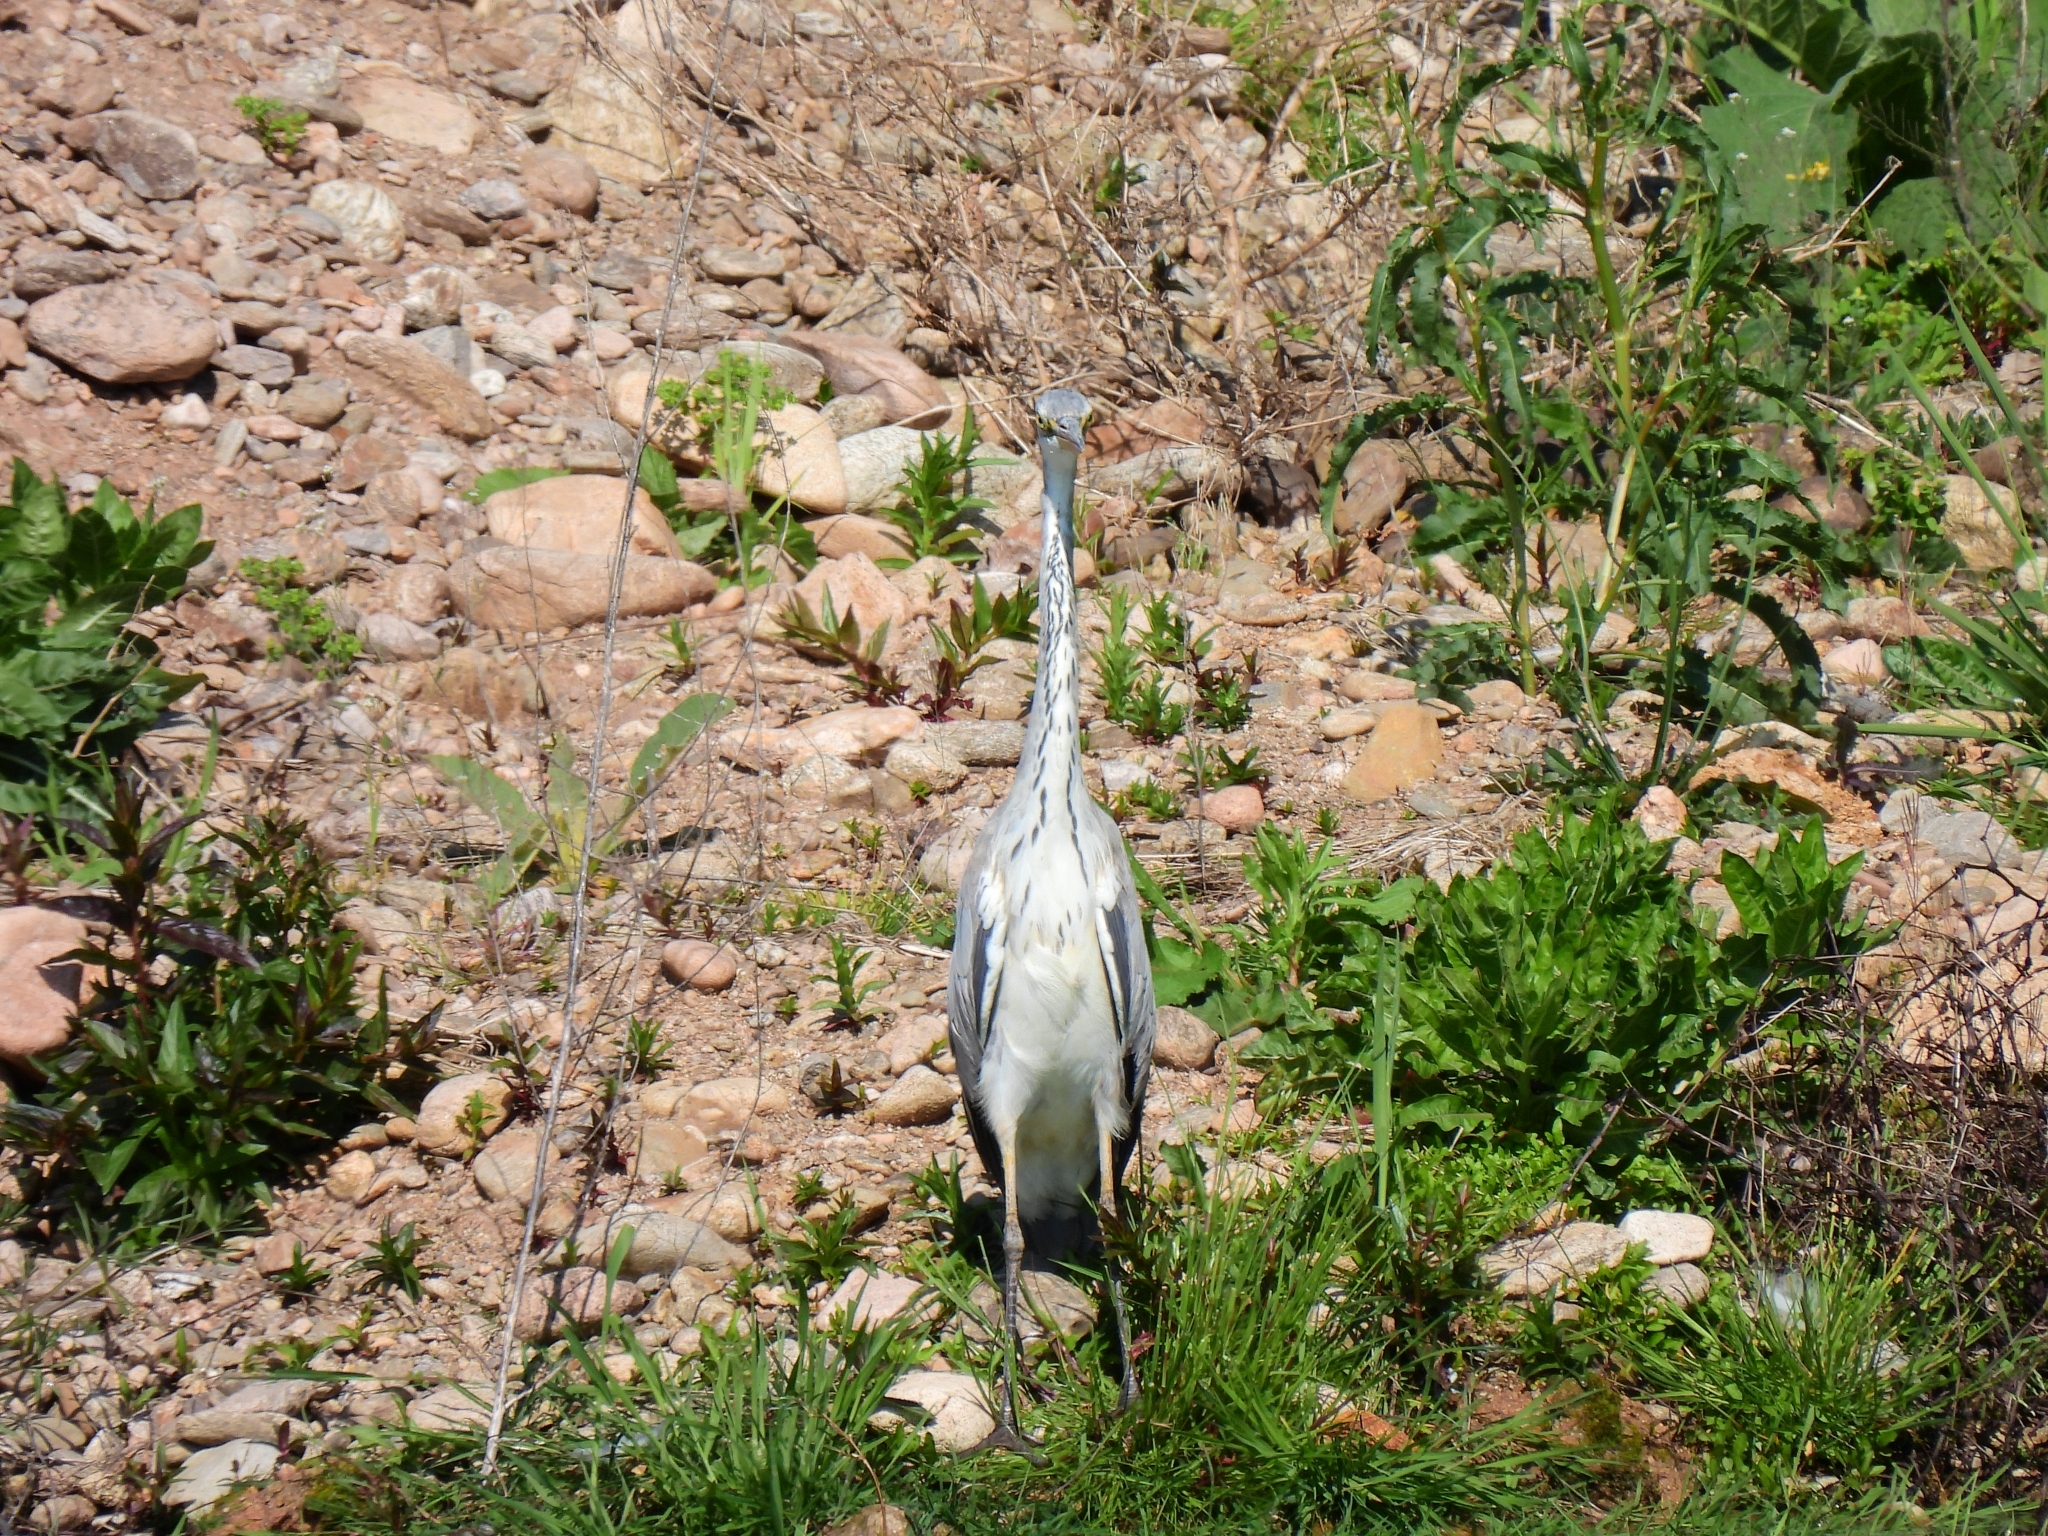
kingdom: Animalia
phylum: Chordata
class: Aves
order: Pelecaniformes
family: Ardeidae
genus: Ardea
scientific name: Ardea cinerea
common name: Grey heron
